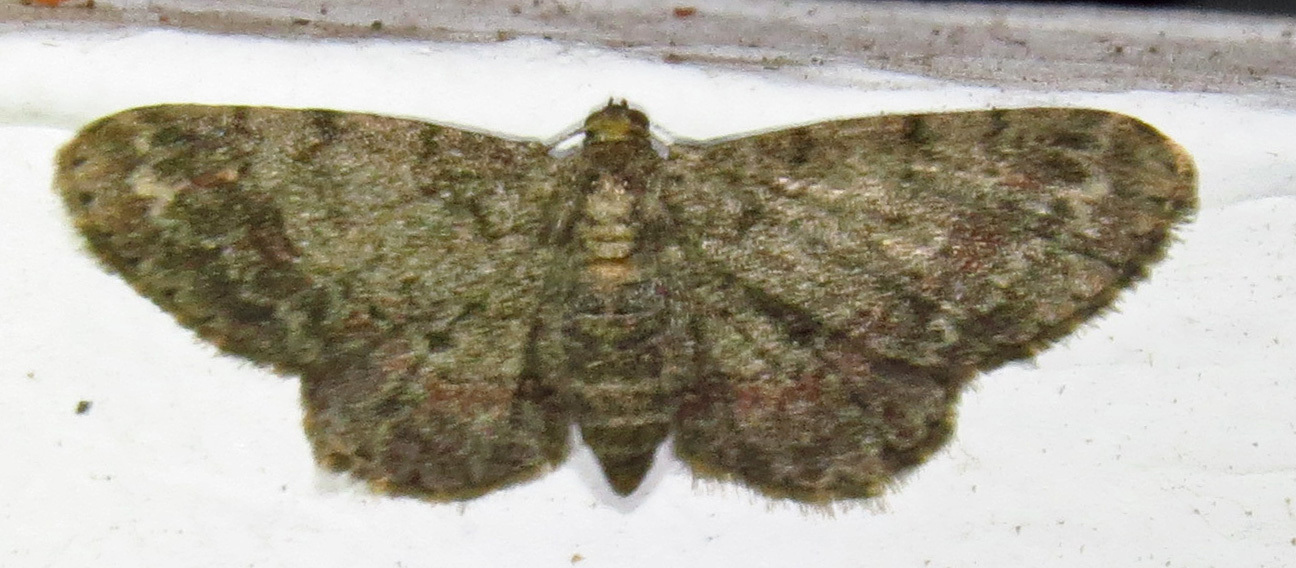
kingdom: Animalia
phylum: Arthropoda
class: Insecta
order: Lepidoptera
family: Geometridae
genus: Glenoides
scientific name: Glenoides texanaria
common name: Texas gray
